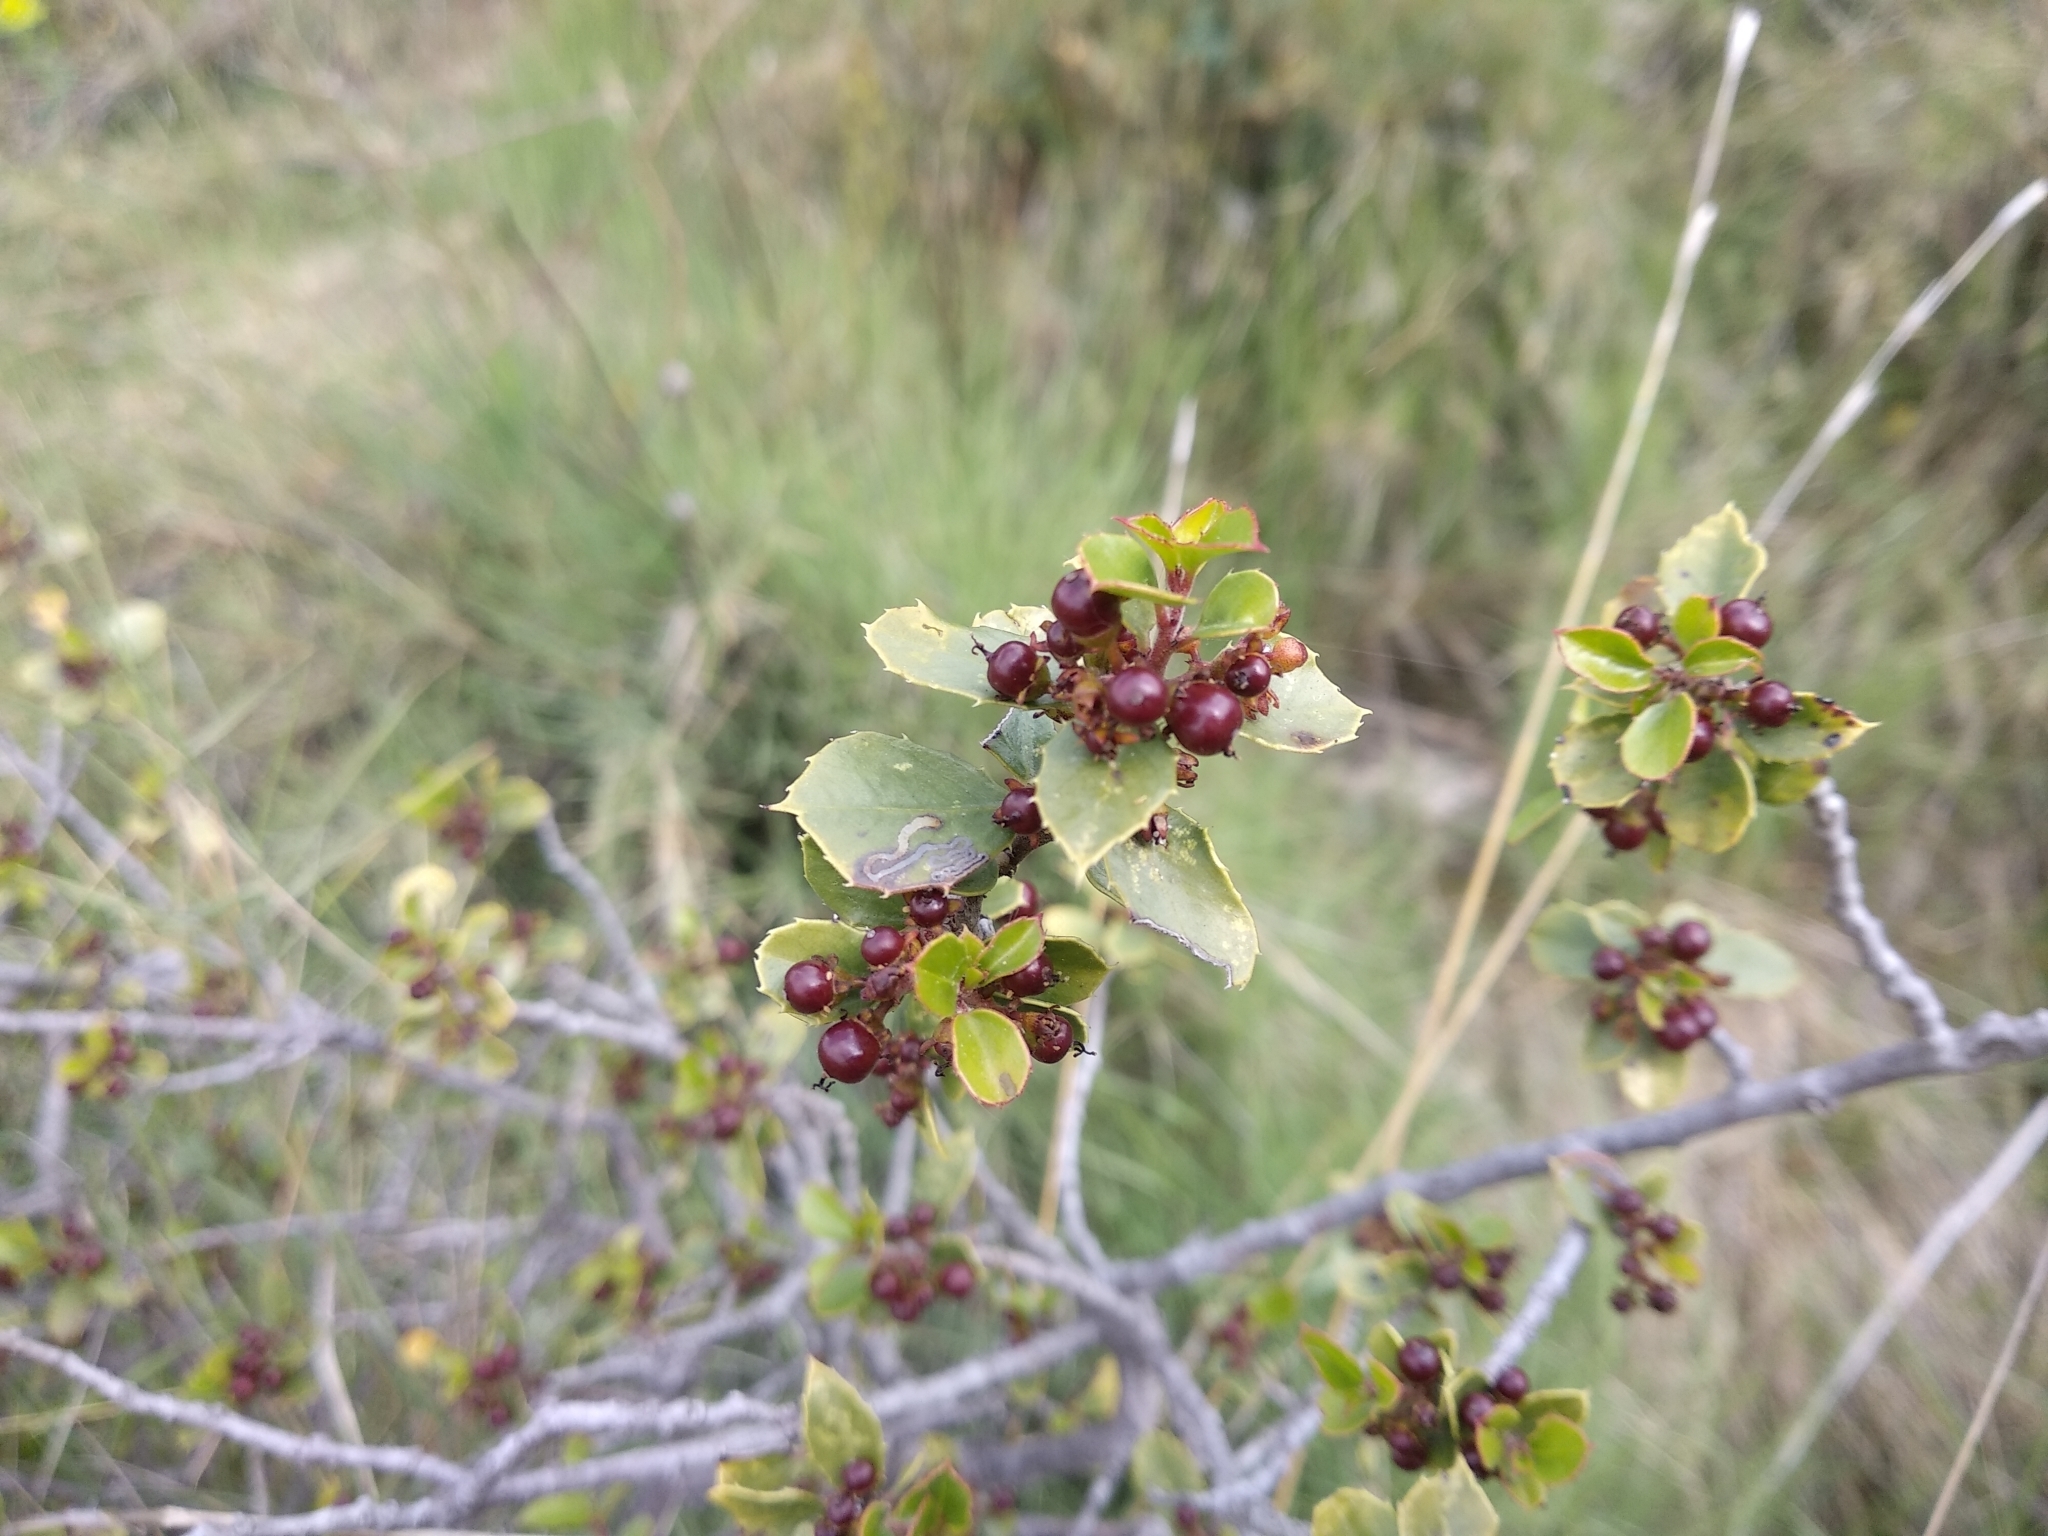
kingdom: Plantae
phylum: Tracheophyta
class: Magnoliopsida
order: Rosales
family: Rhamnaceae
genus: Rhamnus
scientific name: Rhamnus alaternus
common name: Mediterranean buckthorn
